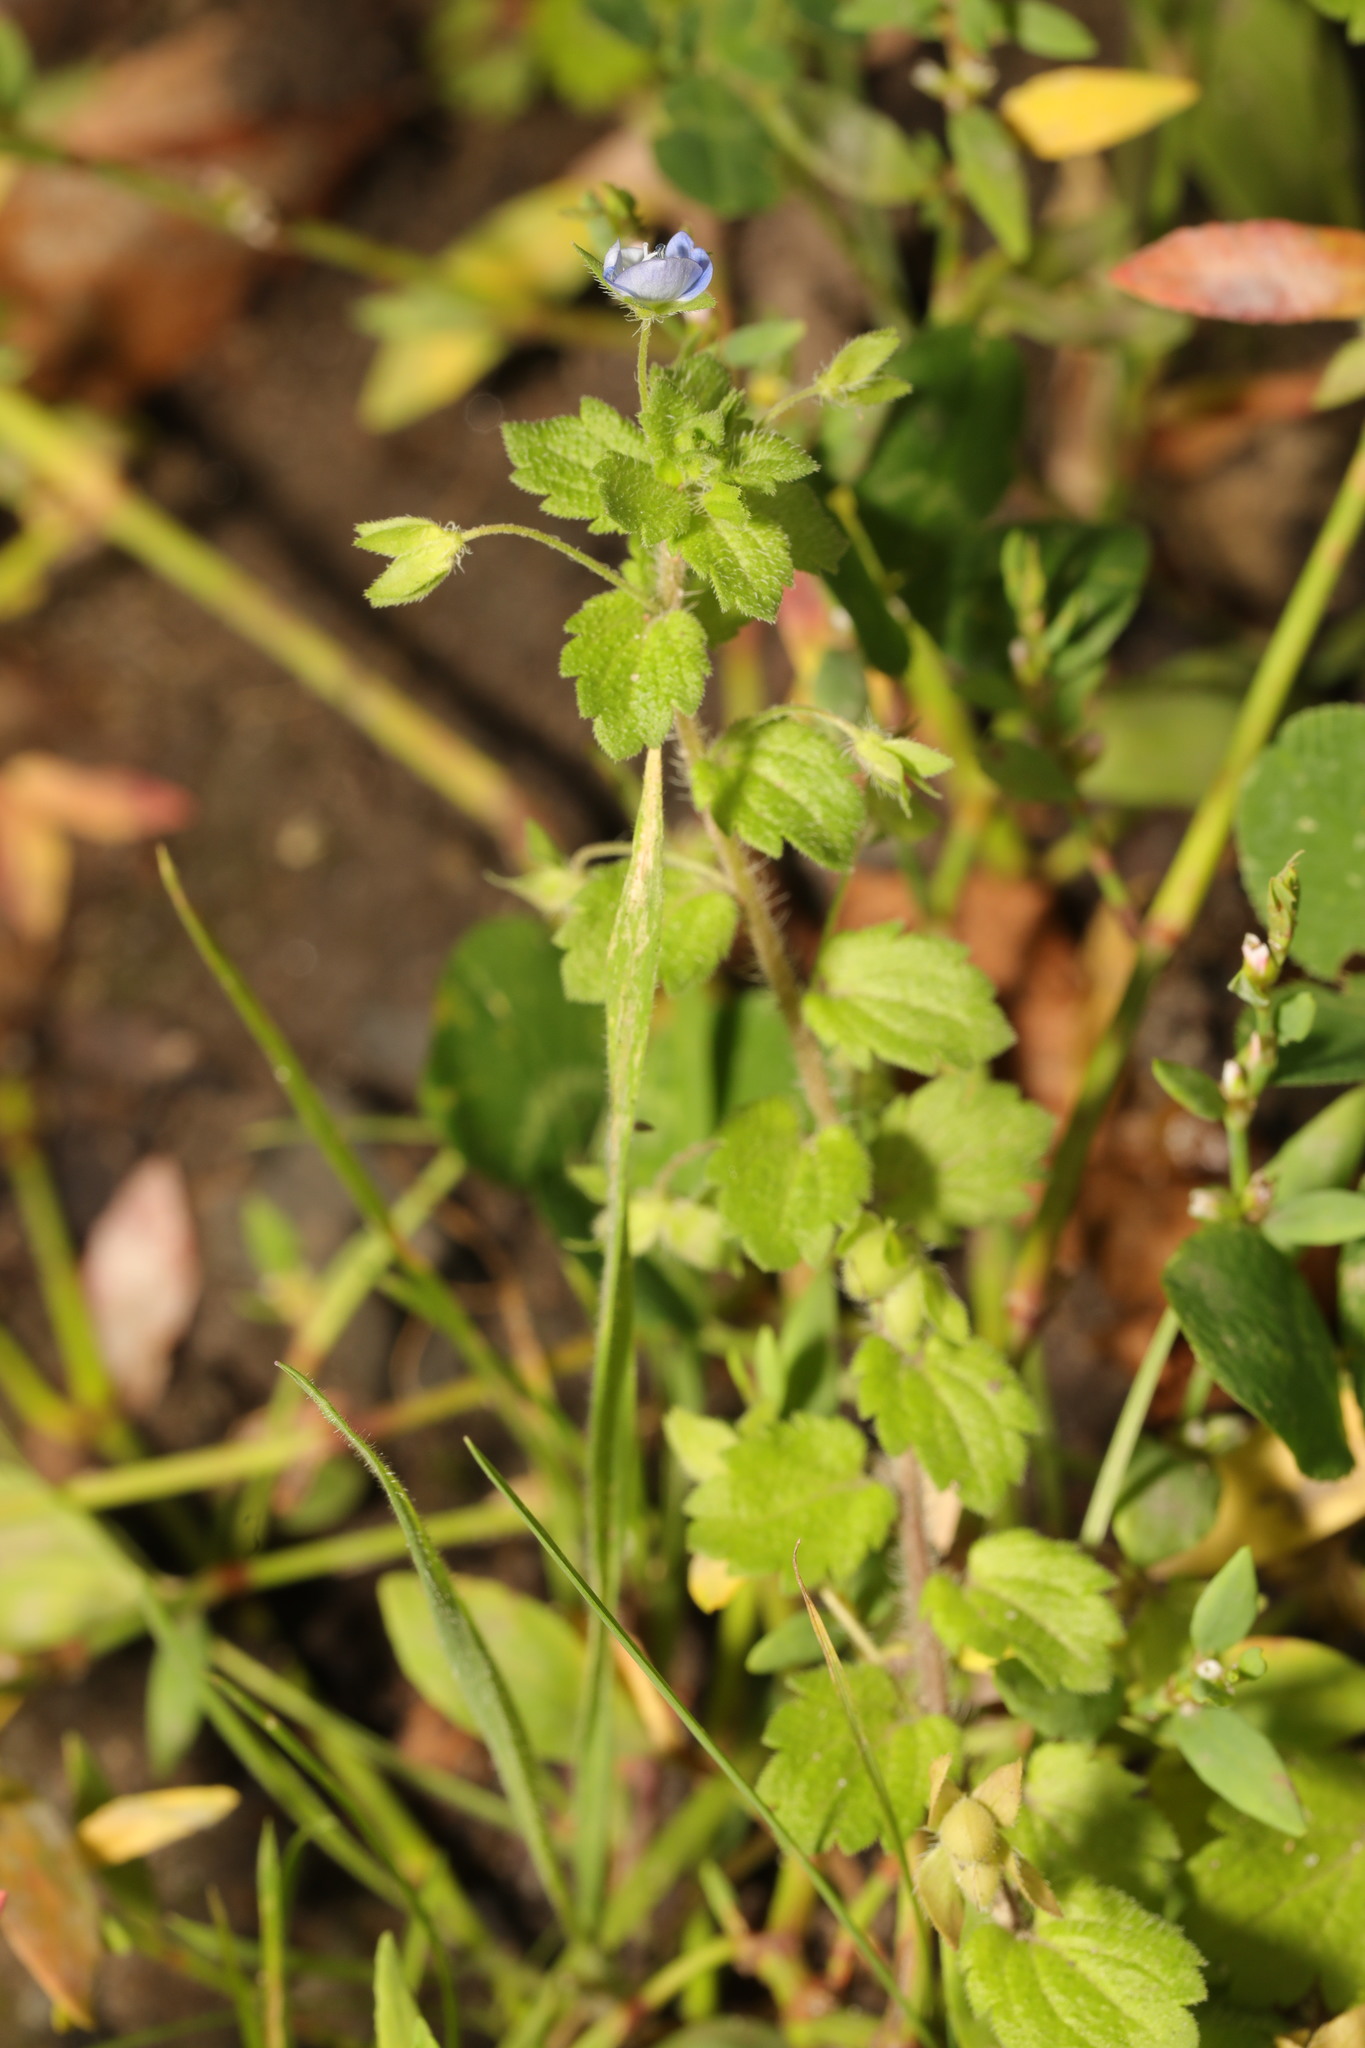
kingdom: Plantae
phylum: Tracheophyta
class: Magnoliopsida
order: Lamiales
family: Plantaginaceae
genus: Veronica
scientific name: Veronica persica
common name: Common field-speedwell
